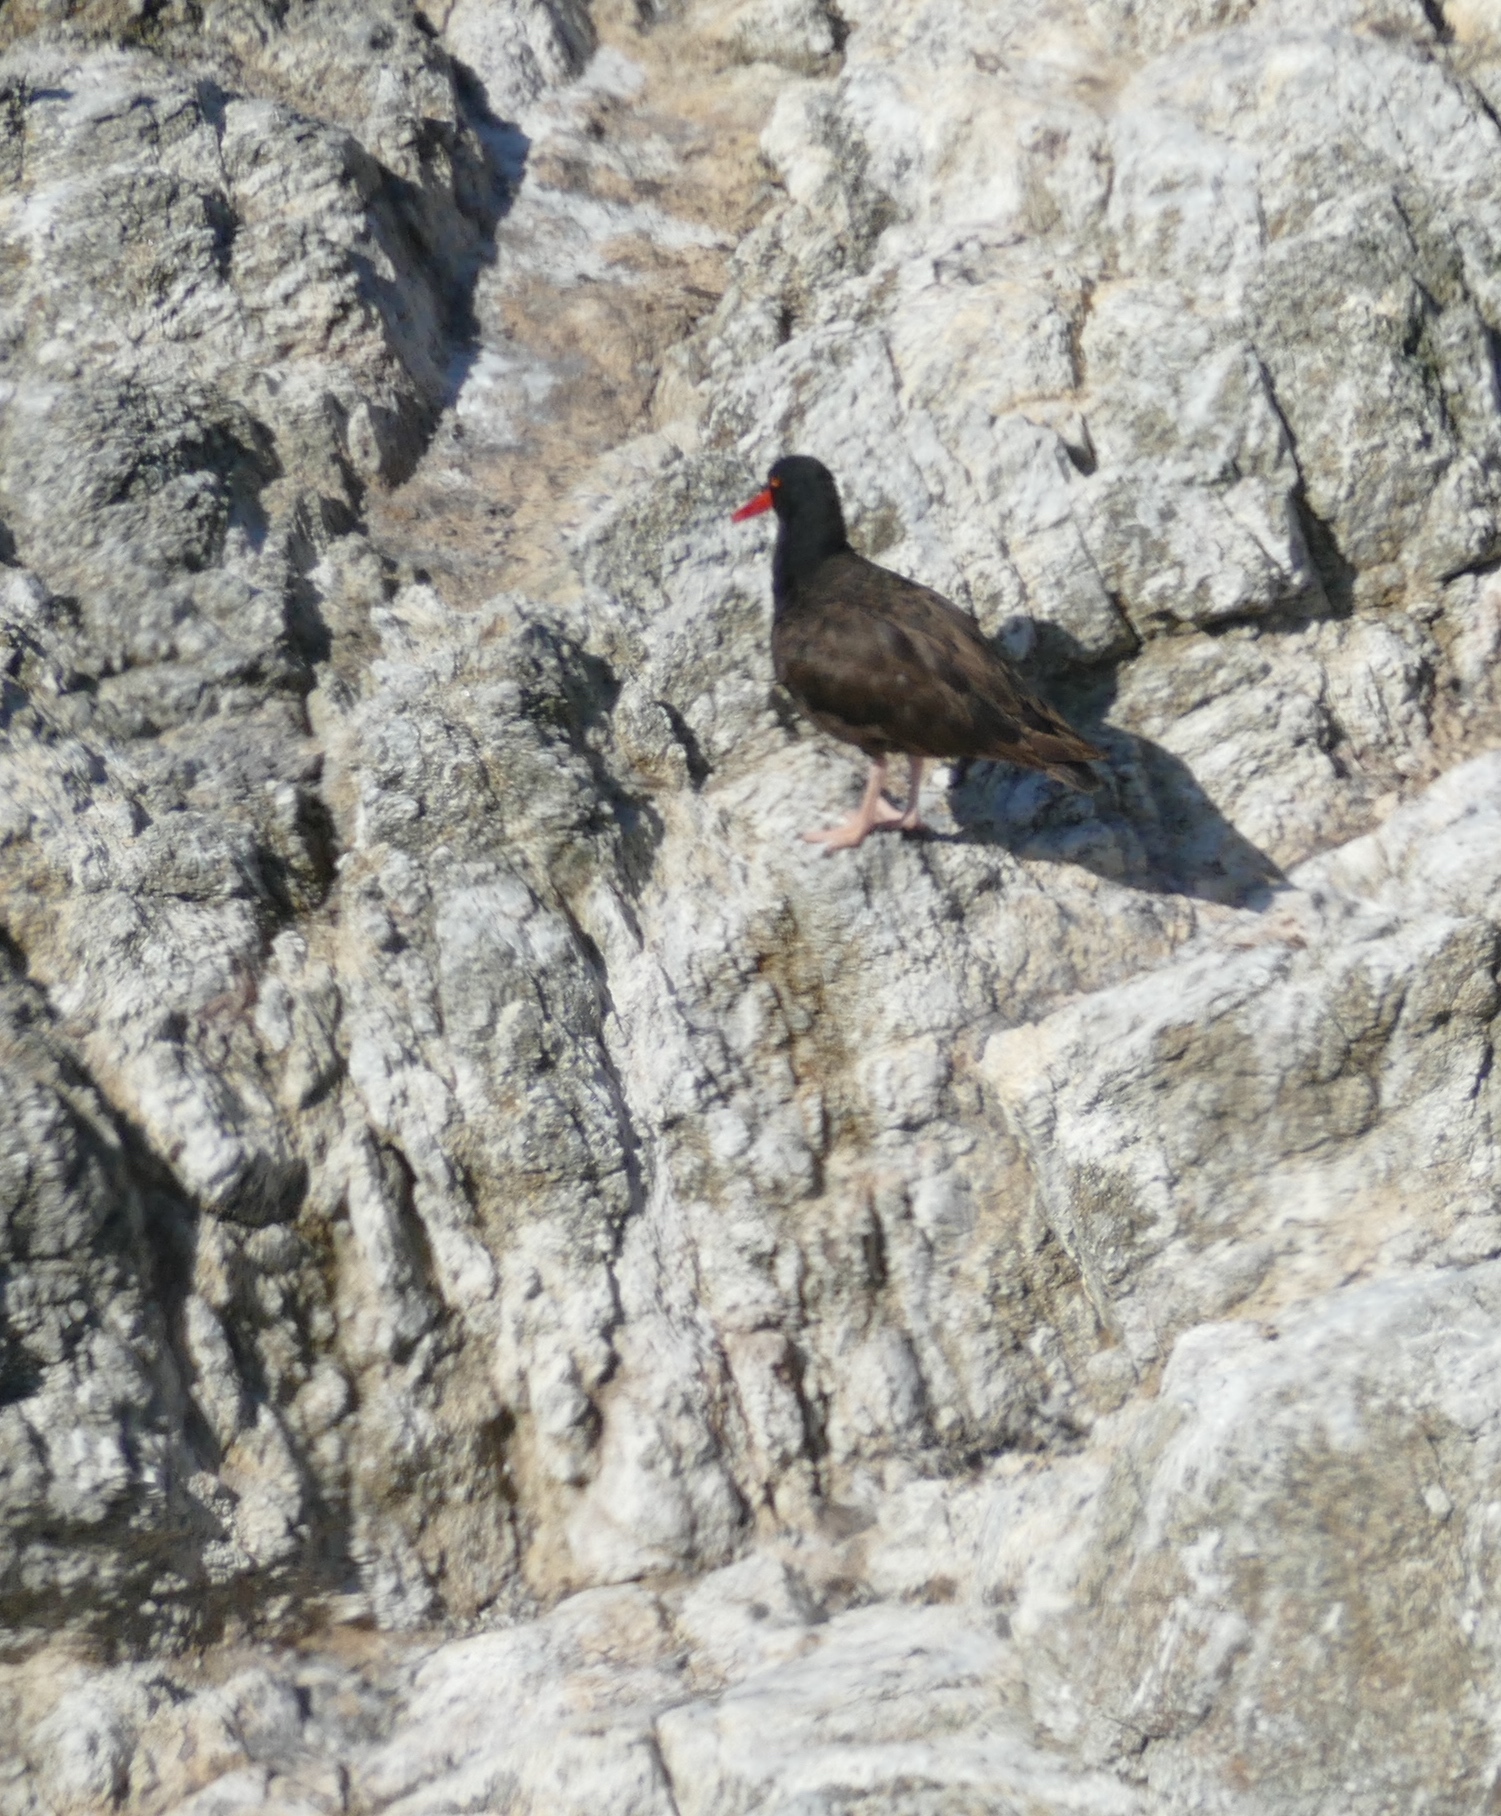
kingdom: Animalia
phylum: Chordata
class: Aves
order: Charadriiformes
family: Haematopodidae
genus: Haematopus
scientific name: Haematopus bachmani
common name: Black oystercatcher
